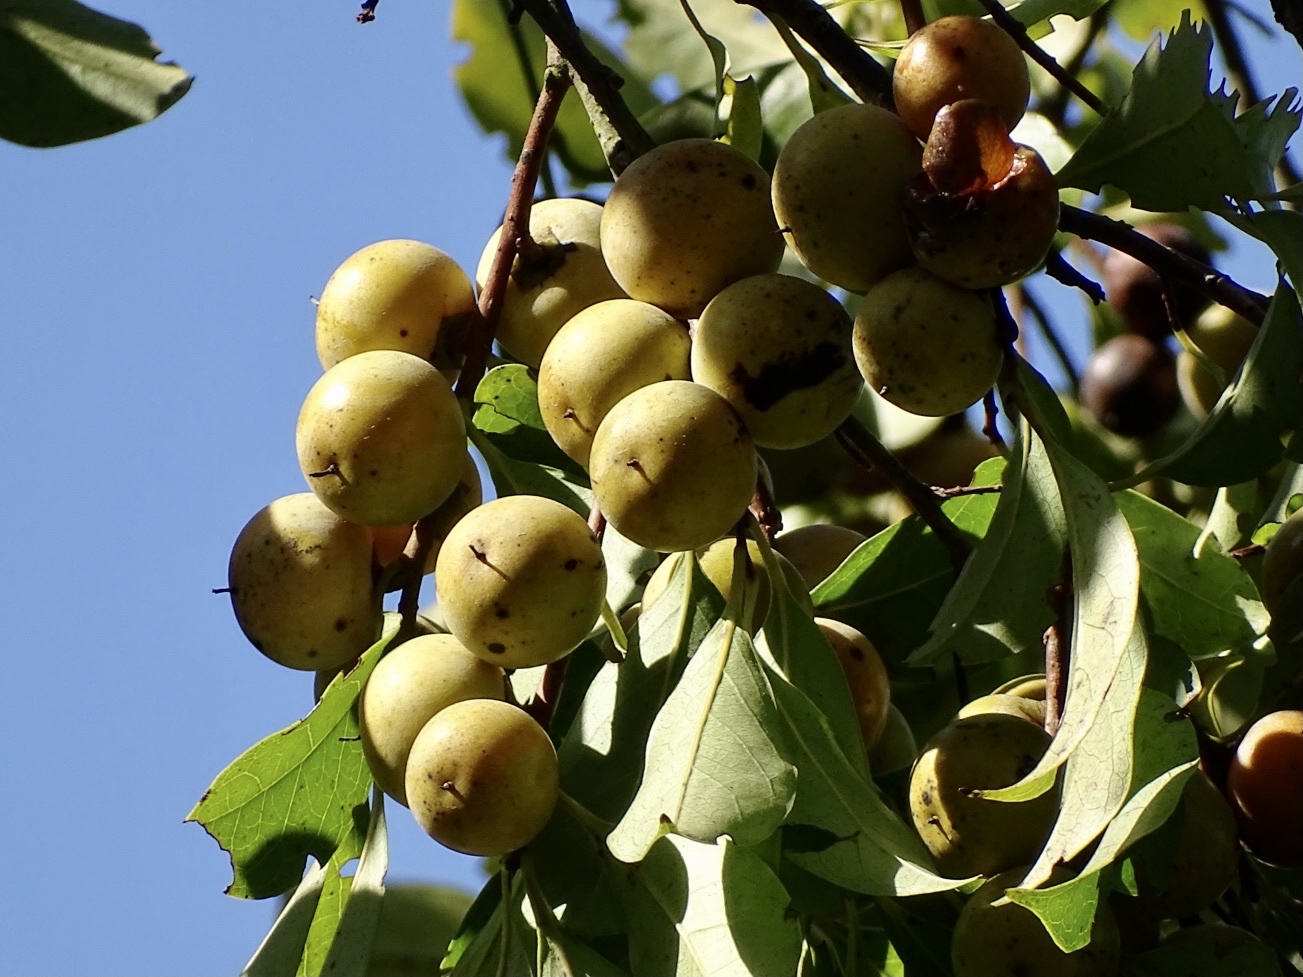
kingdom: Plantae
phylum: Tracheophyta
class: Magnoliopsida
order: Ericales
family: Ebenaceae
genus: Diospyros
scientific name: Diospyros morrisiana
